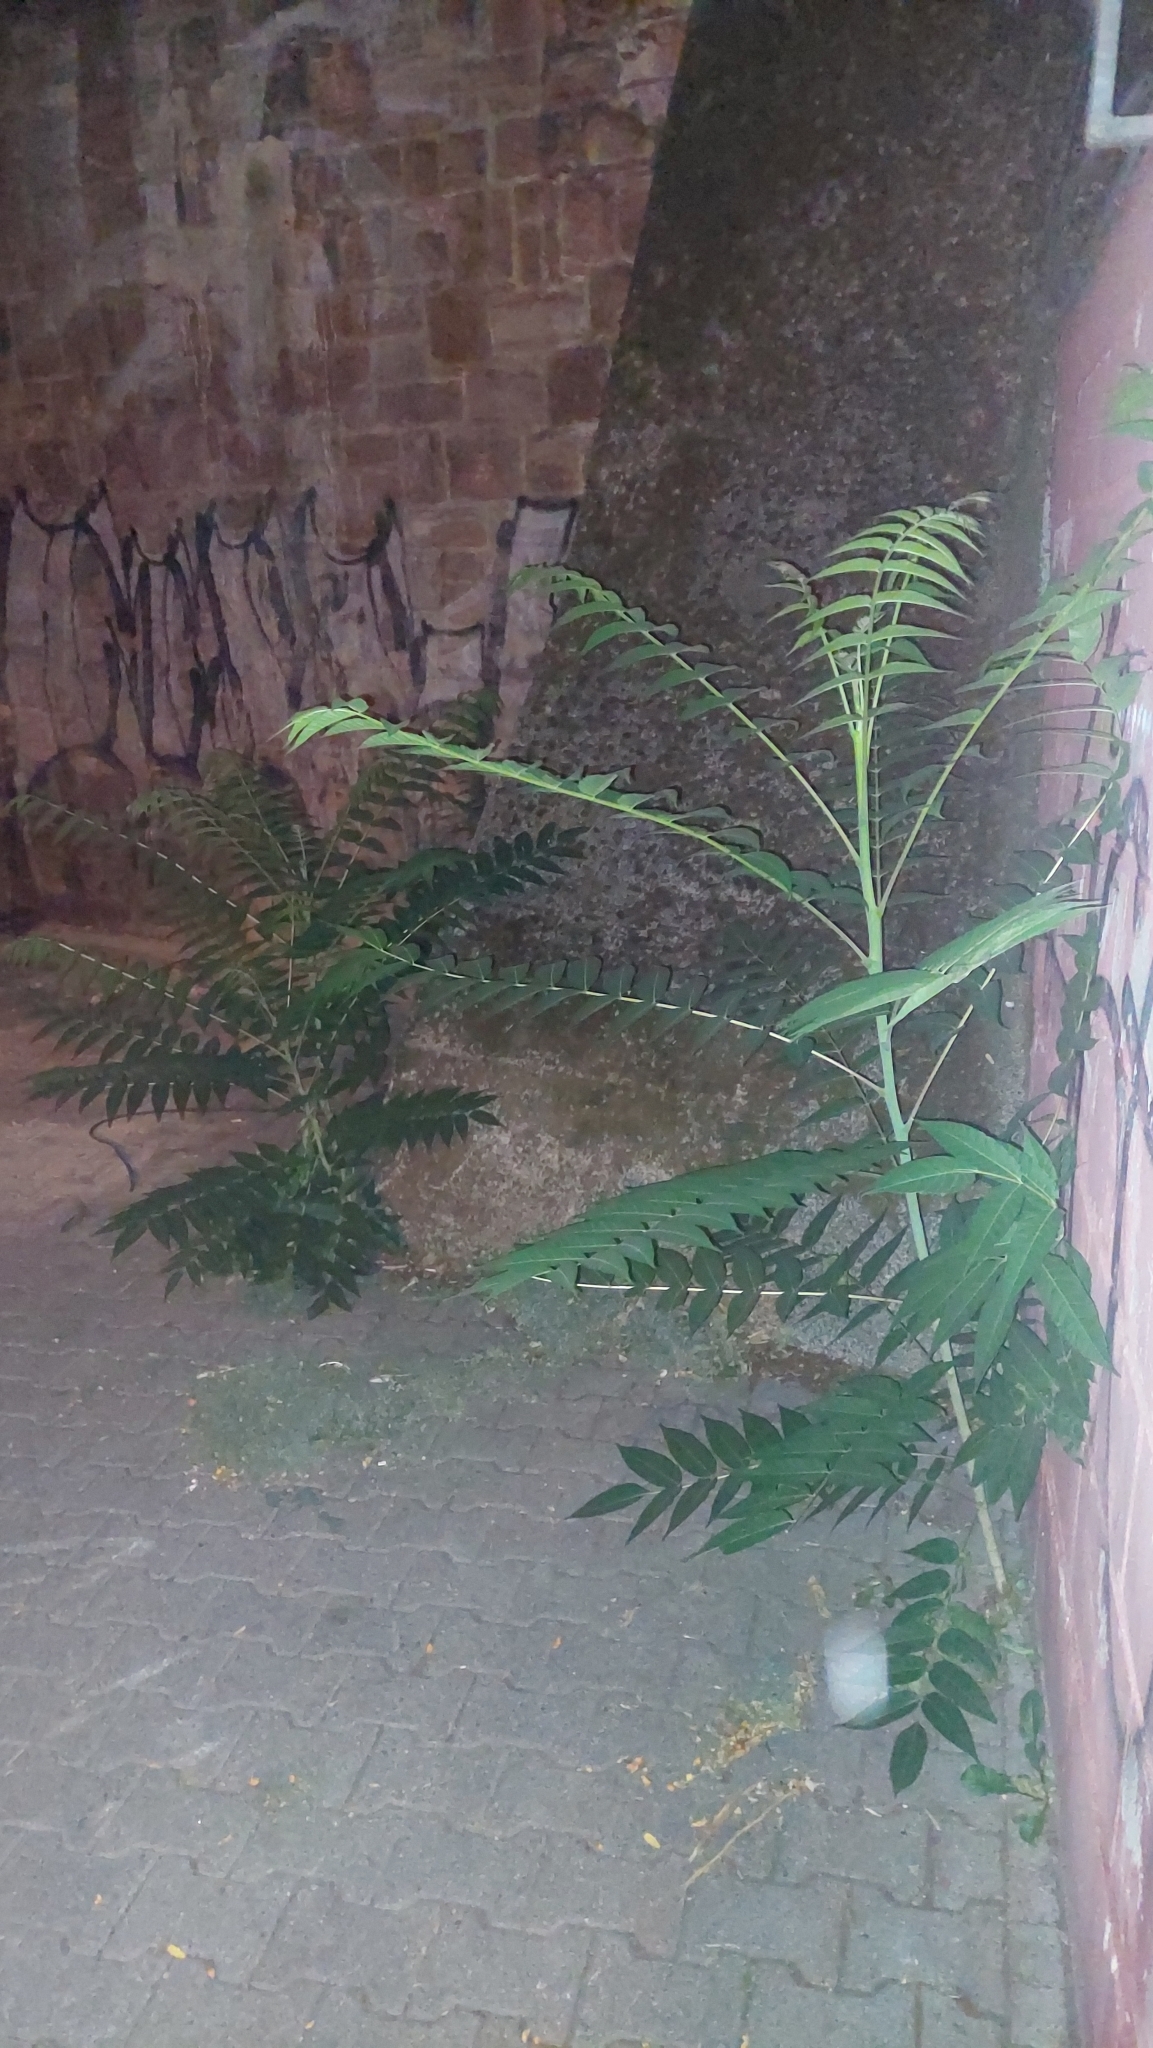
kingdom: Plantae
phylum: Tracheophyta
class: Magnoliopsida
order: Sapindales
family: Simaroubaceae
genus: Ailanthus
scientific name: Ailanthus altissima
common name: Tree-of-heaven
